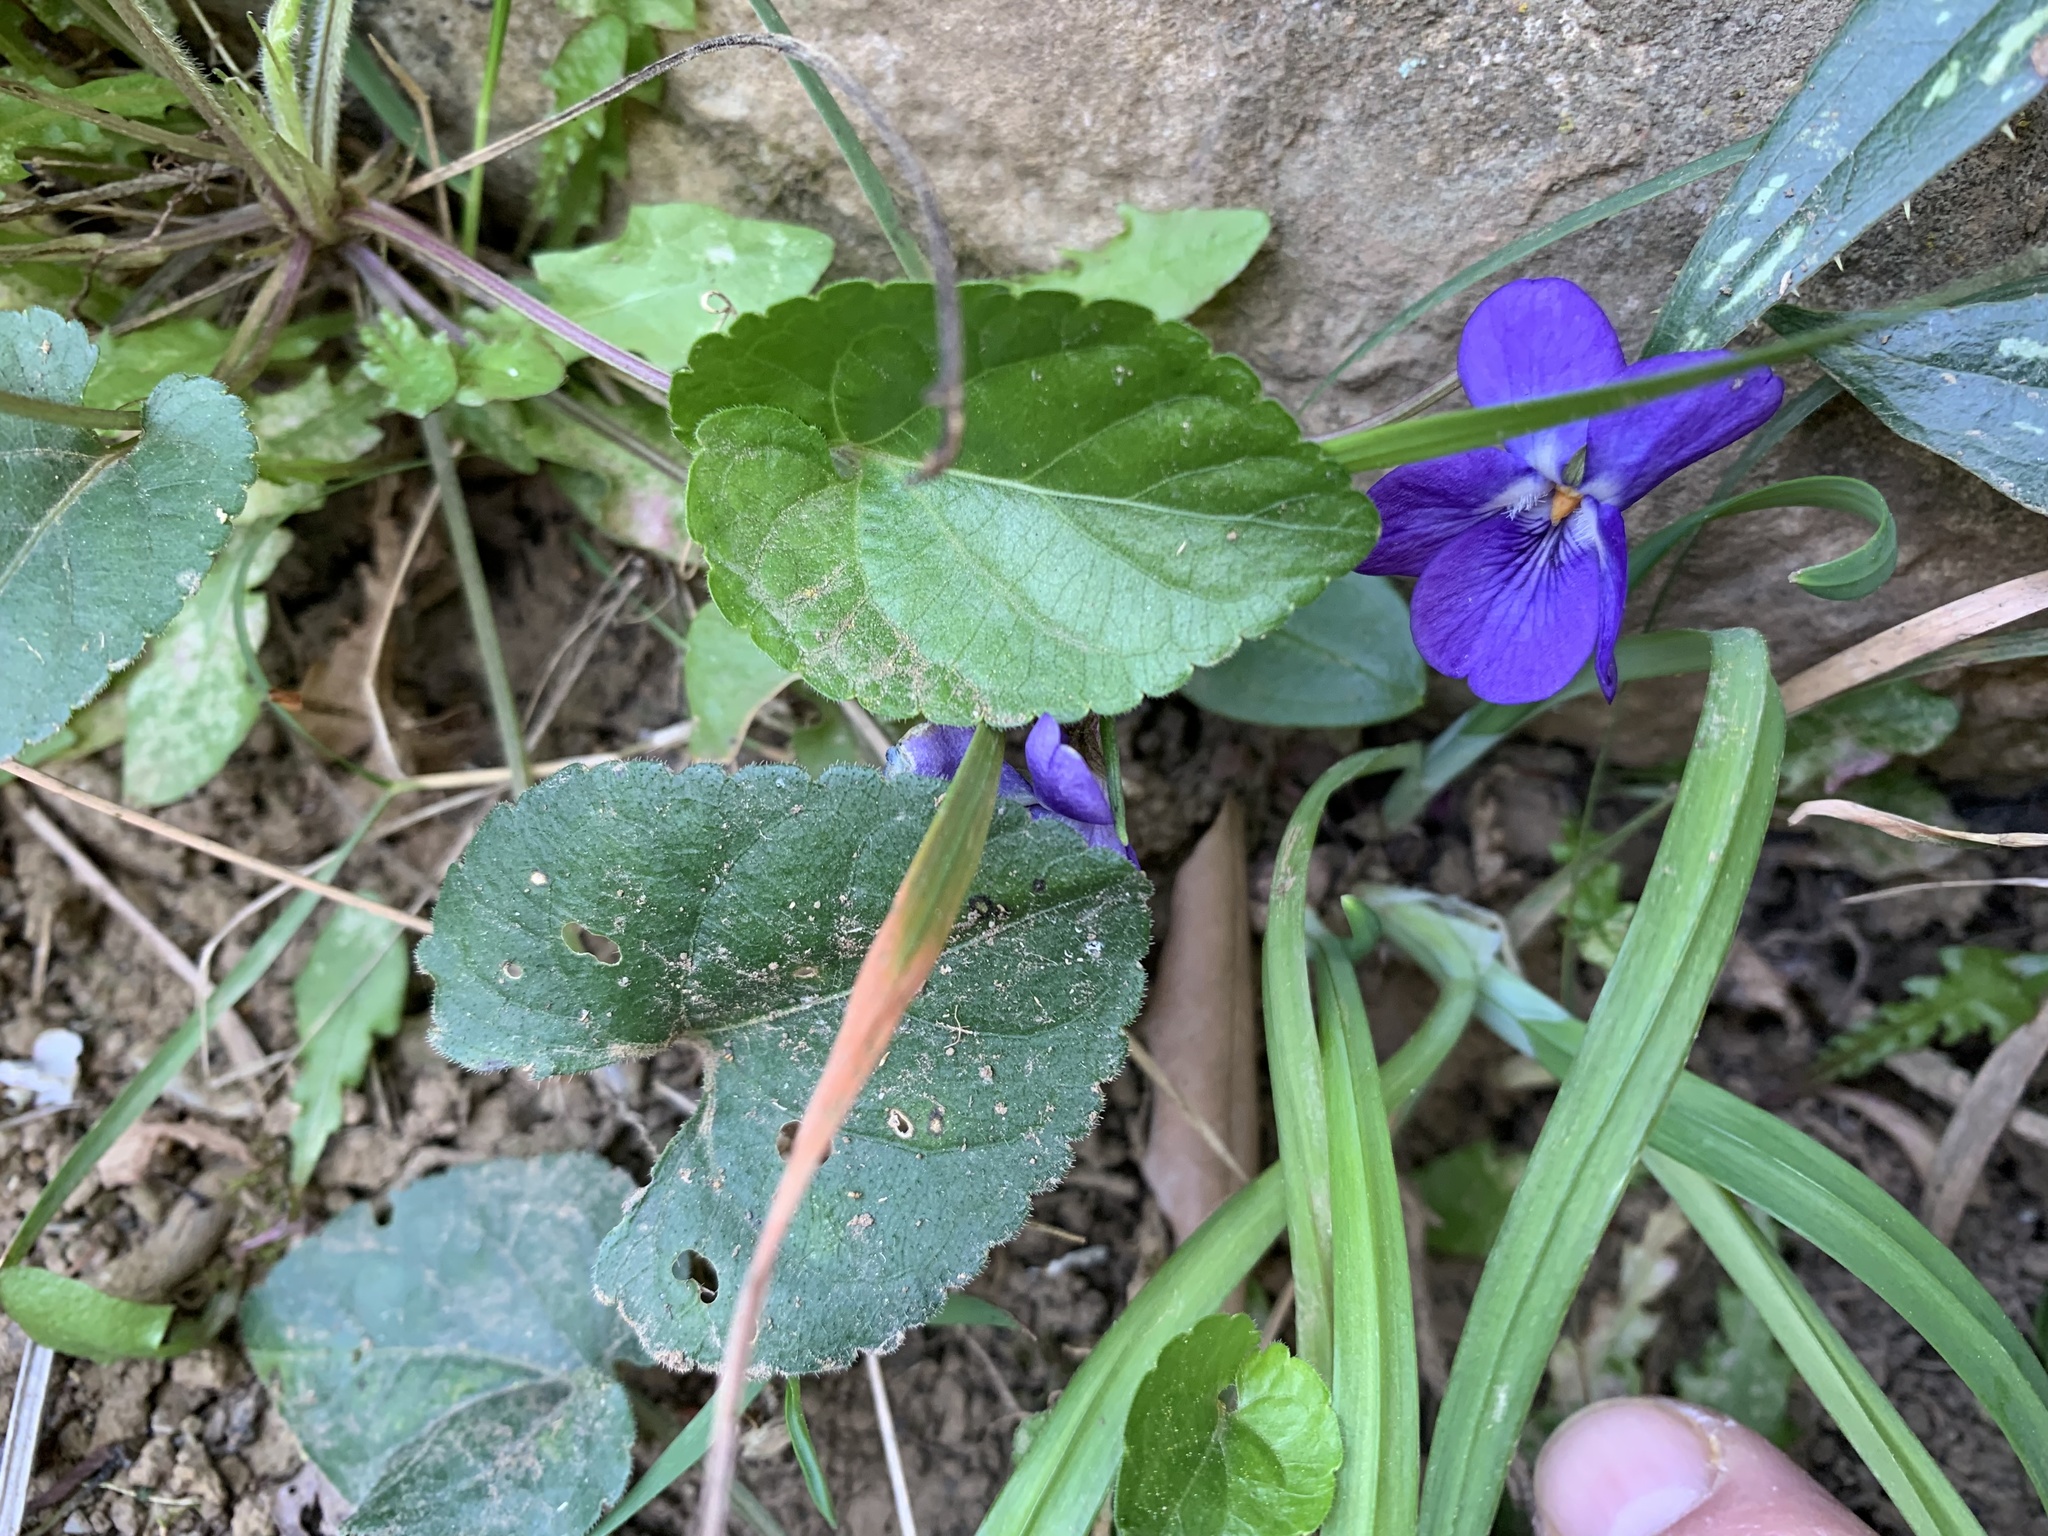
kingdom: Plantae
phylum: Tracheophyta
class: Magnoliopsida
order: Malpighiales
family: Violaceae
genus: Viola
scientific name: Viola odorata
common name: Sweet violet
